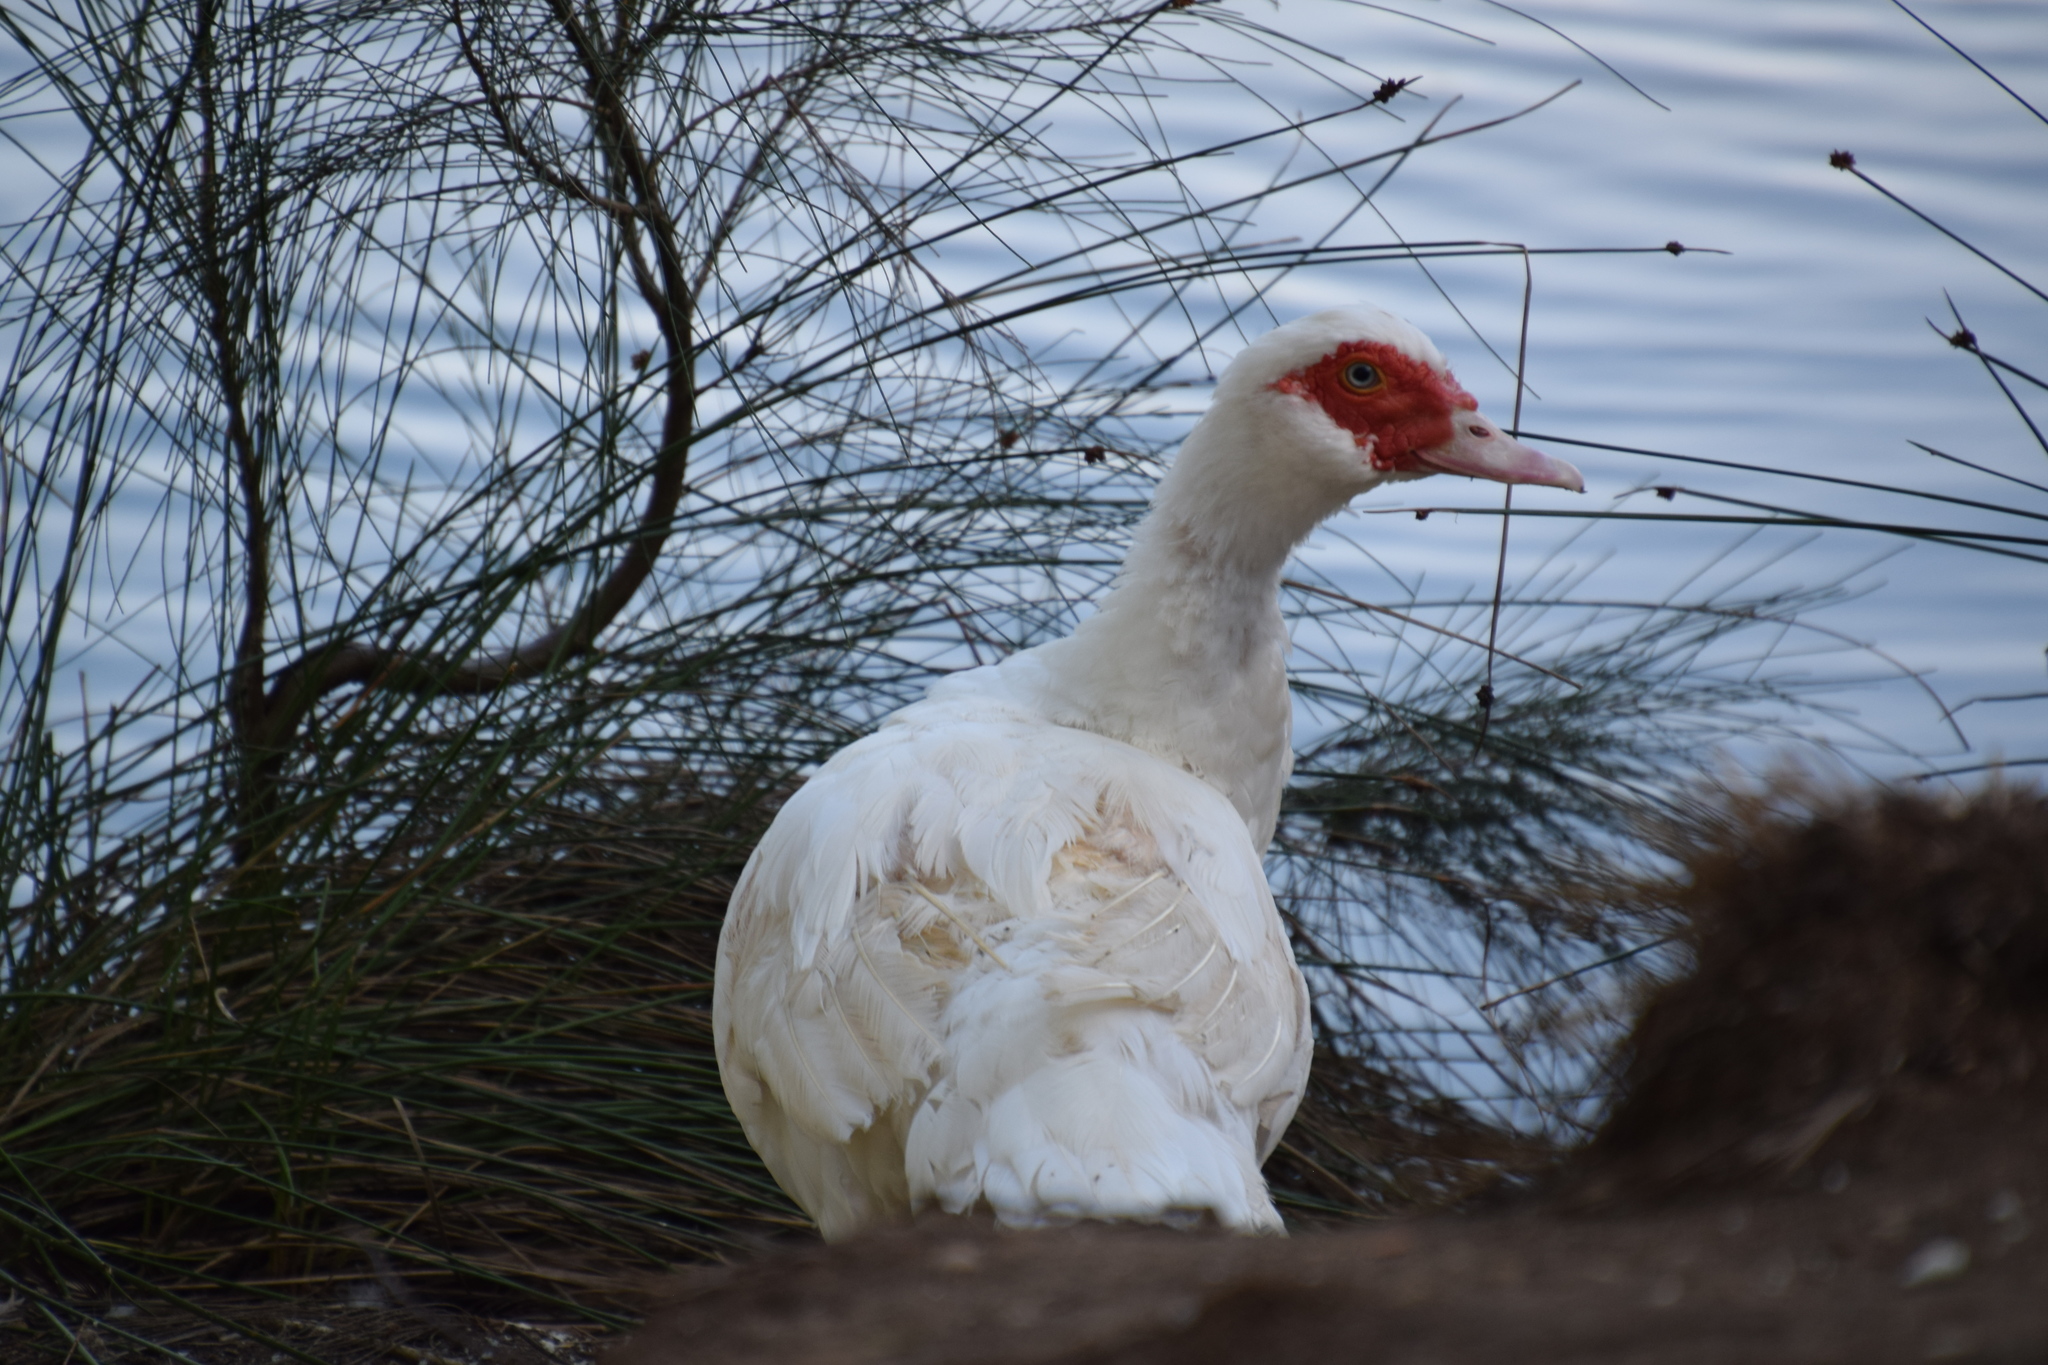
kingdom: Animalia
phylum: Chordata
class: Aves
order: Anseriformes
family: Anatidae
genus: Cairina
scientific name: Cairina moschata
